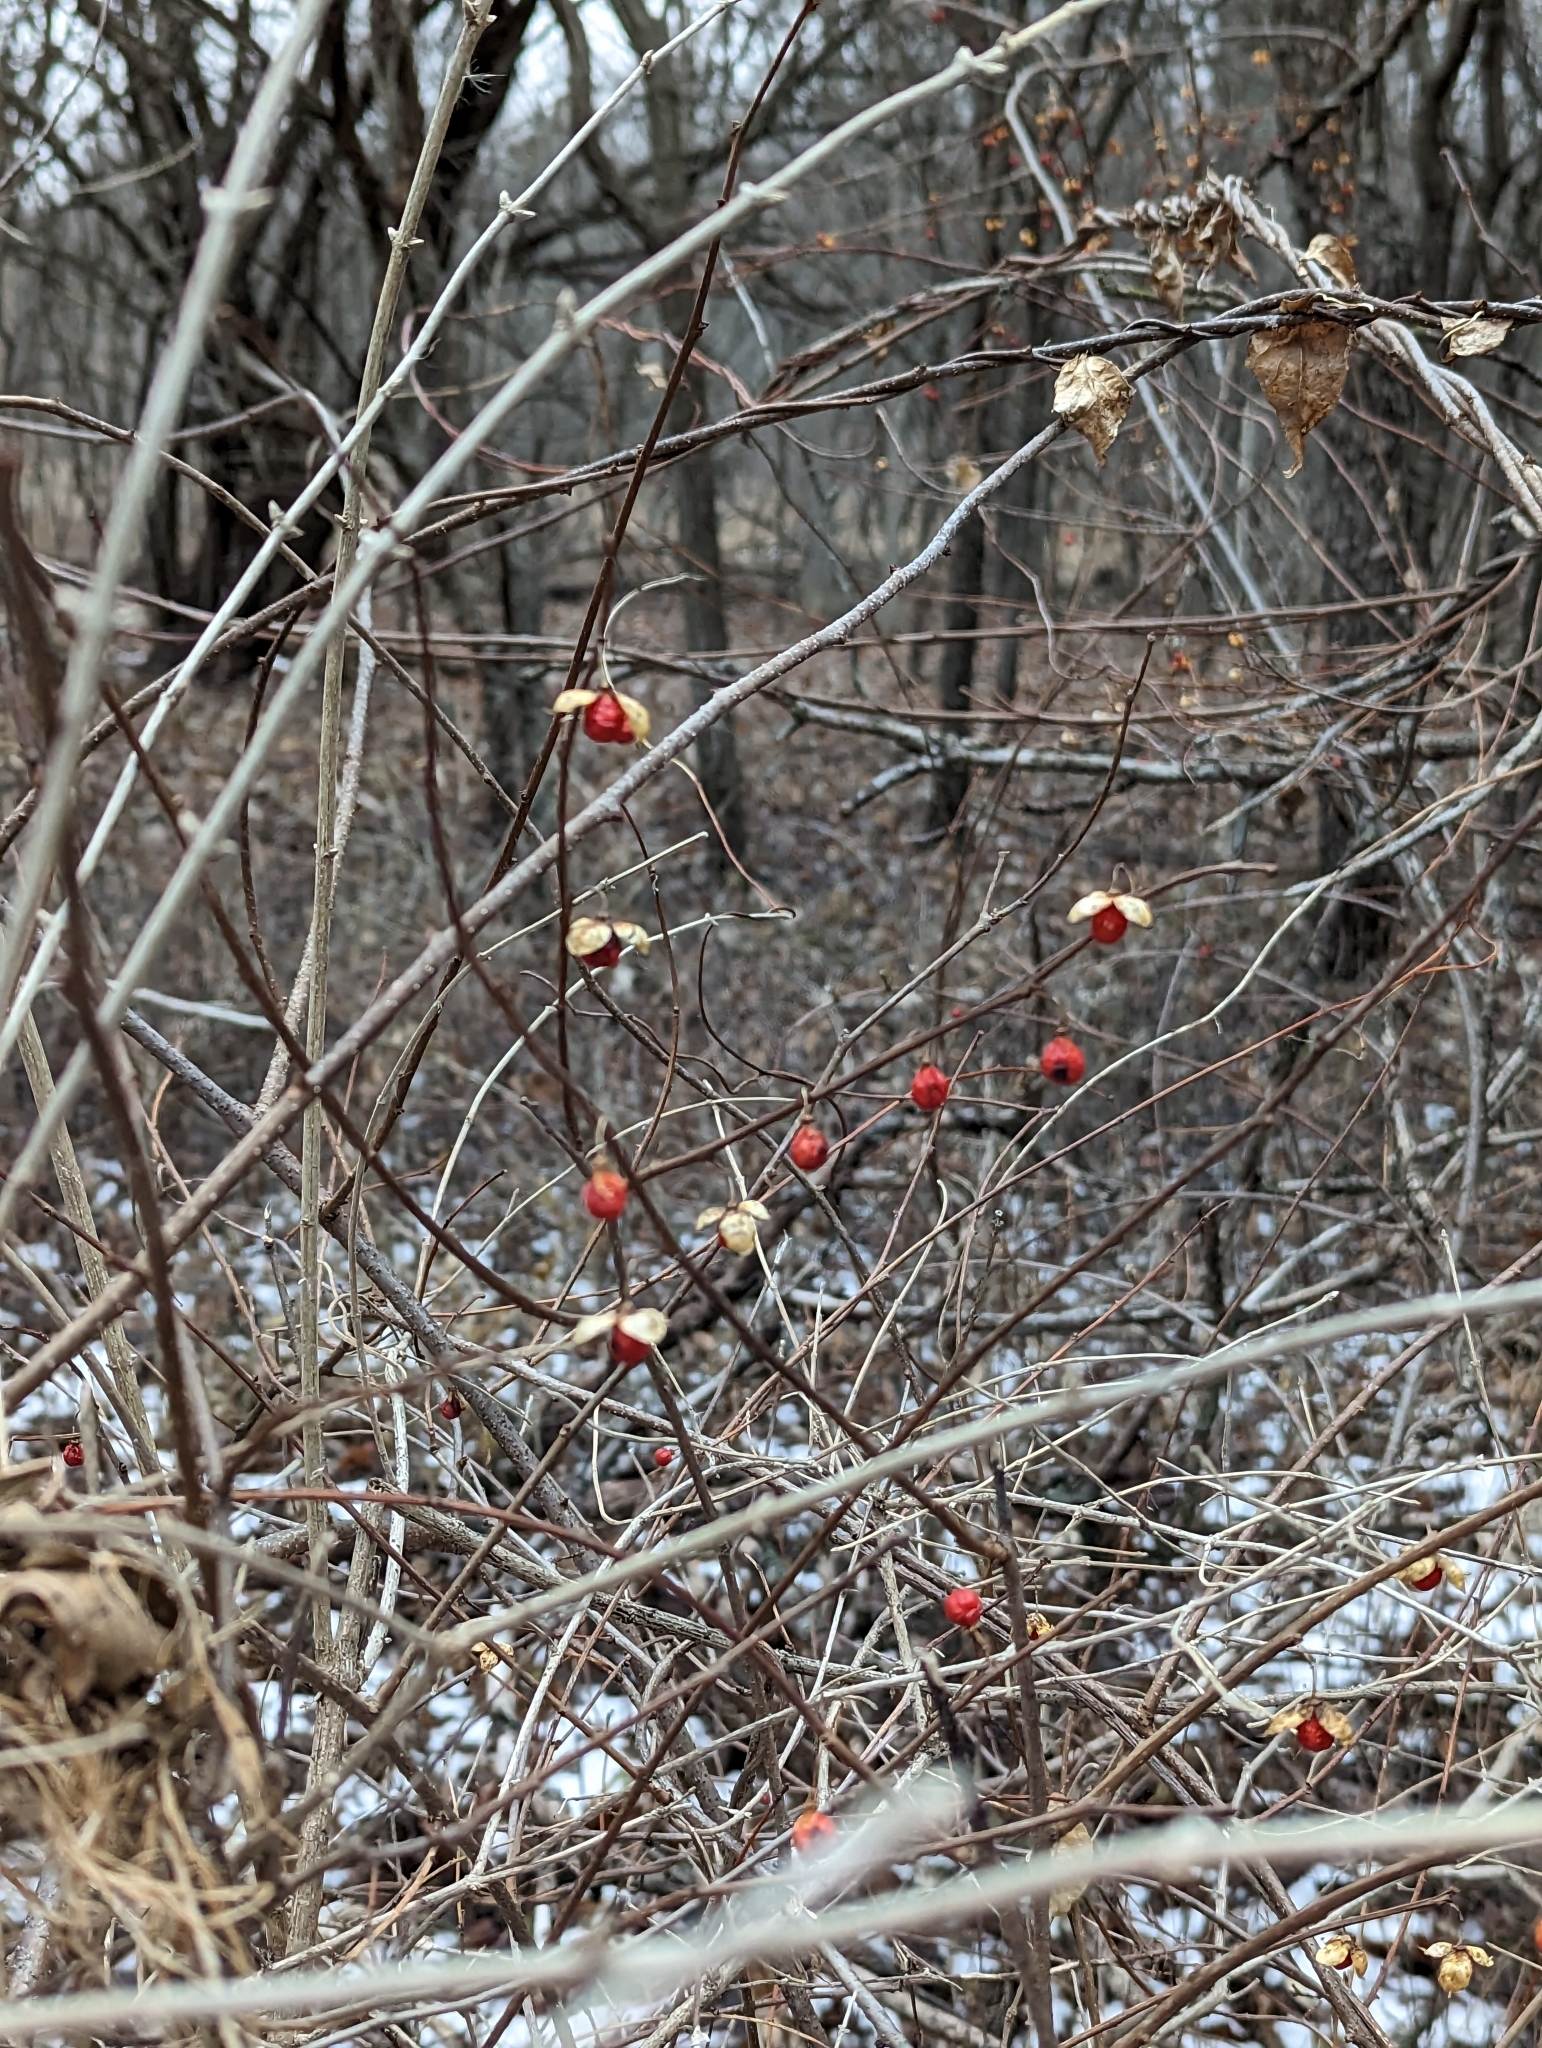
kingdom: Plantae
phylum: Tracheophyta
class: Magnoliopsida
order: Celastrales
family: Celastraceae
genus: Celastrus
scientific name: Celastrus orbiculatus
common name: Oriental bittersweet
